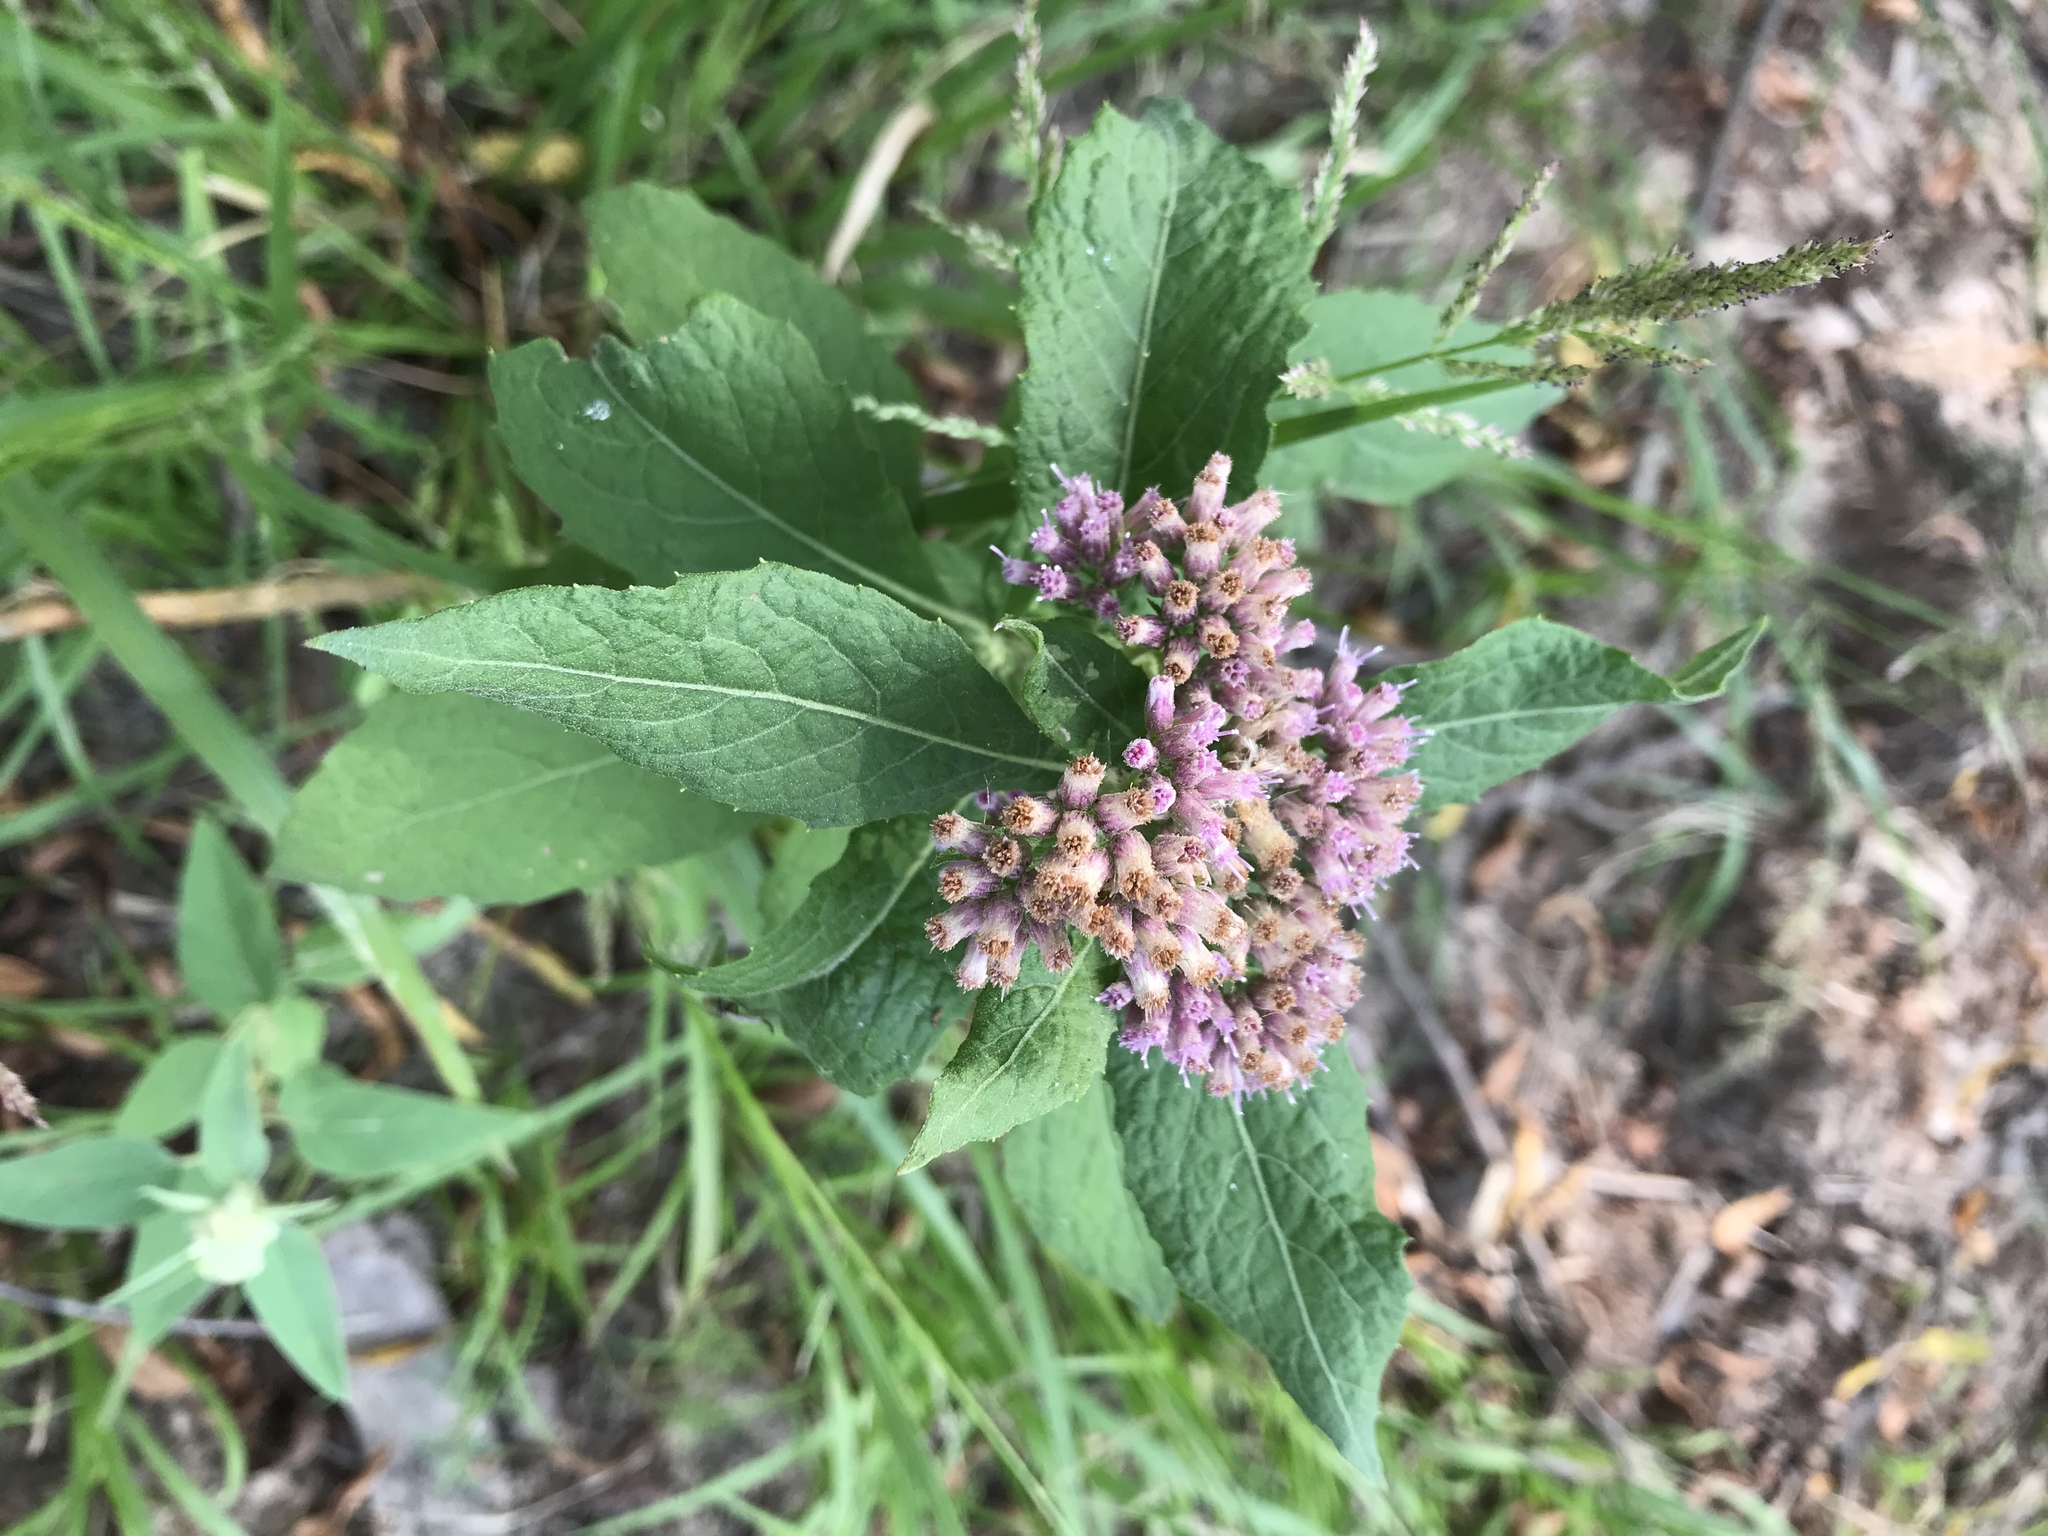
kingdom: Plantae
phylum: Tracheophyta
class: Magnoliopsida
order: Asterales
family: Asteraceae
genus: Pluchea
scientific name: Pluchea camphorata
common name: Camphor pluchea
